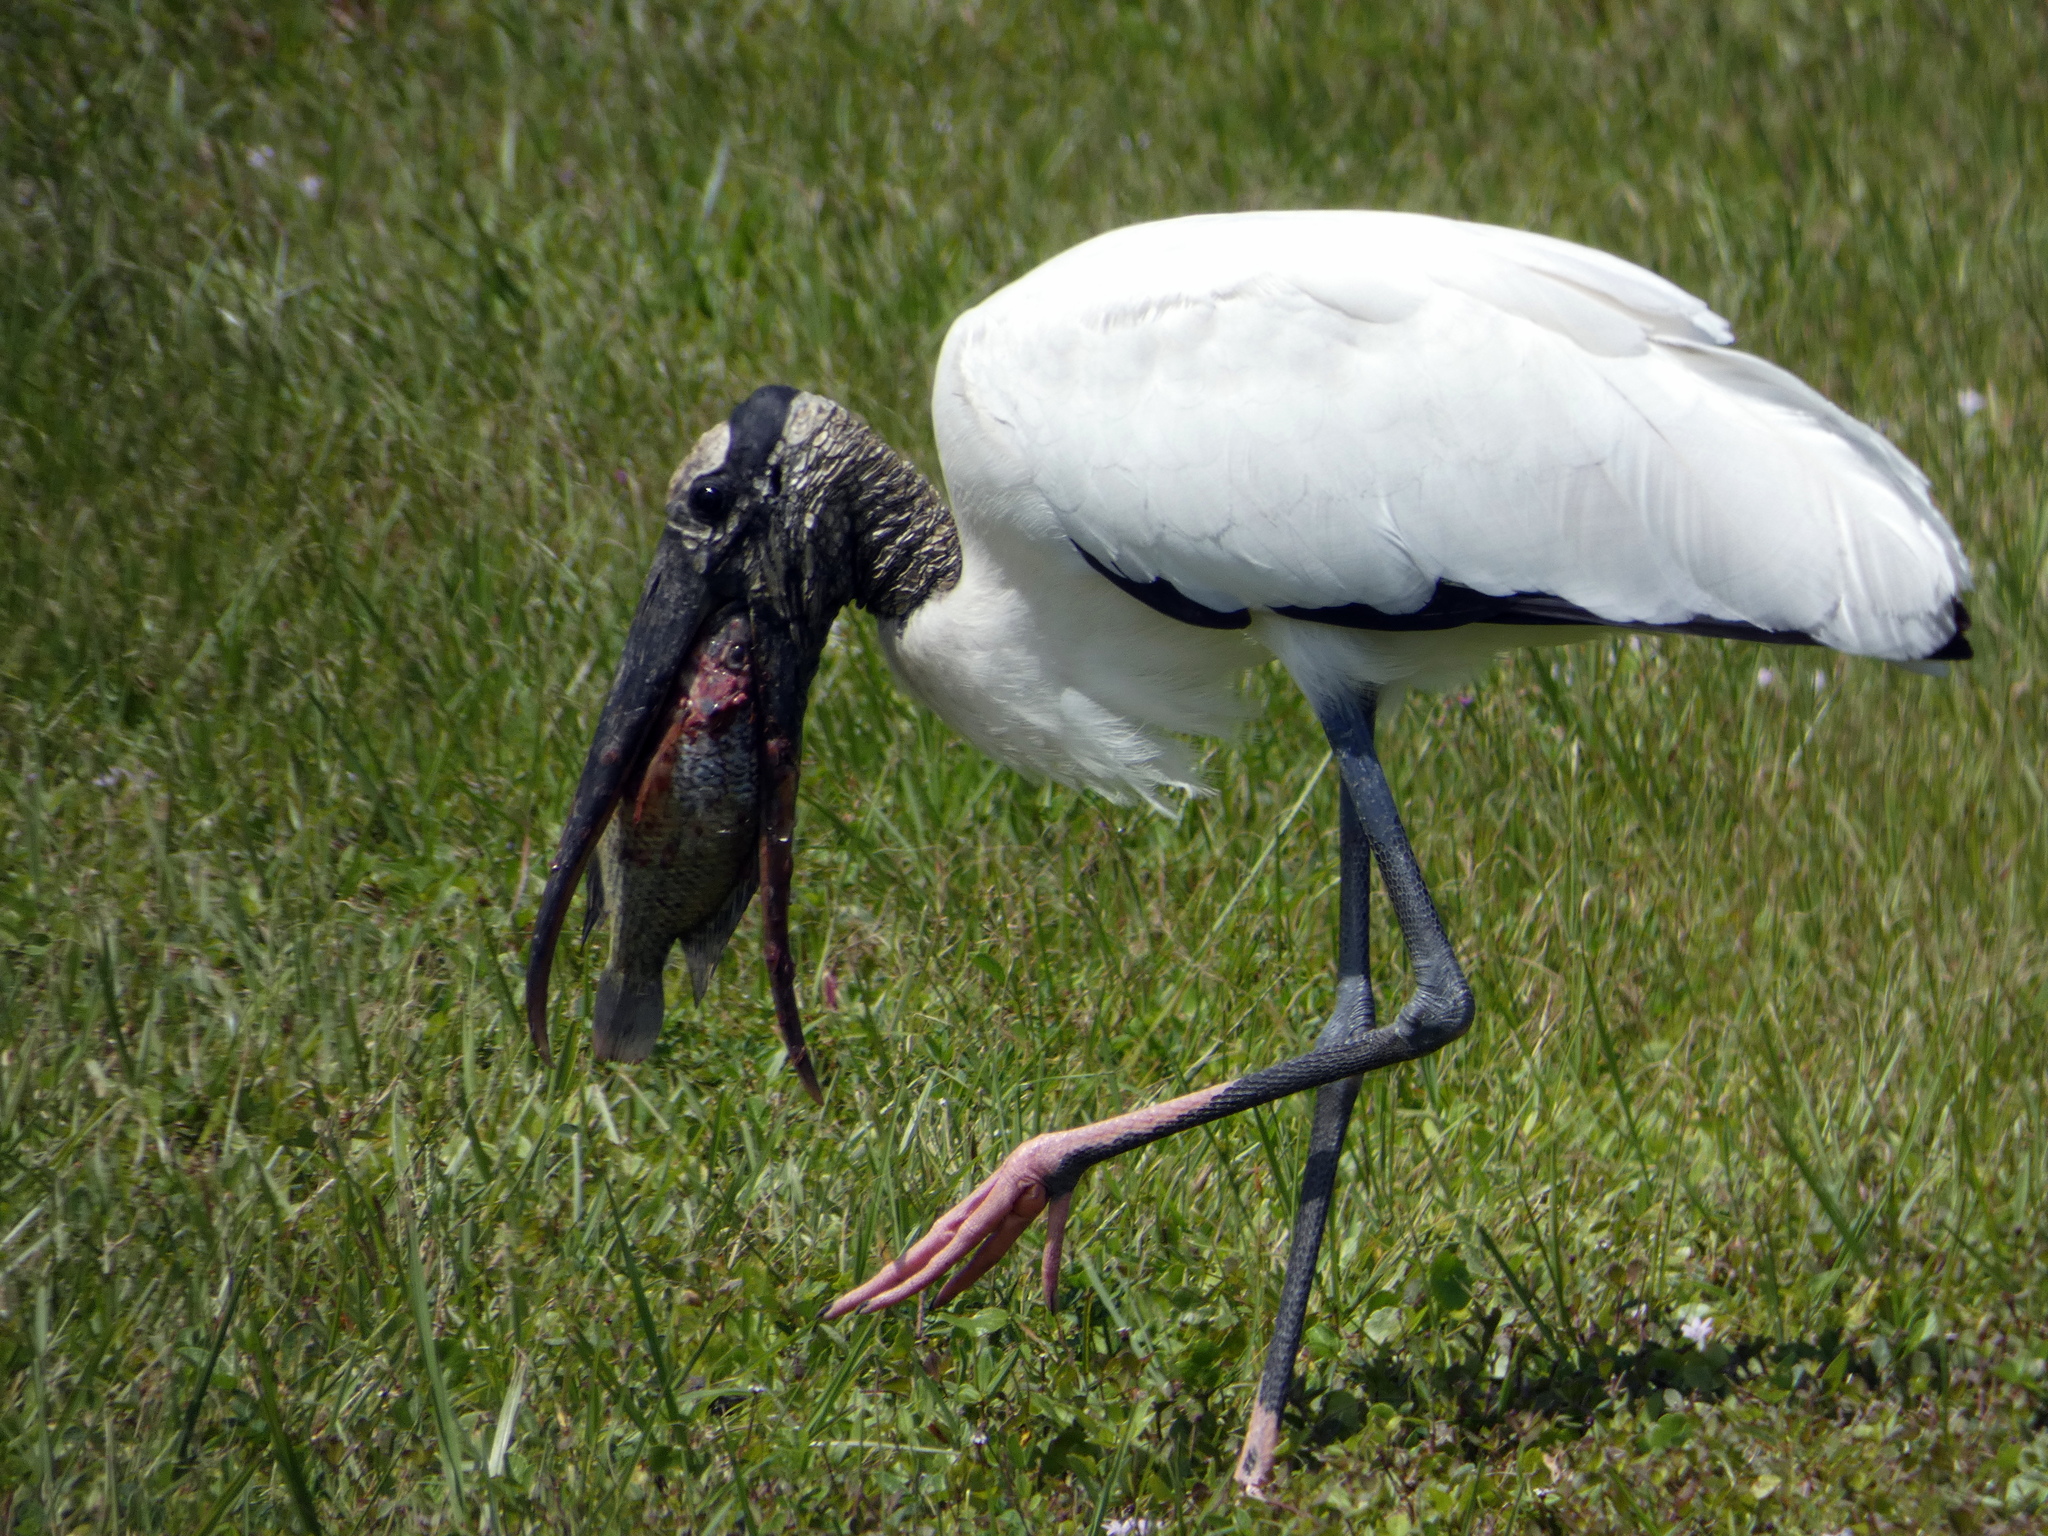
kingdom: Animalia
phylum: Chordata
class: Aves
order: Ciconiiformes
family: Ciconiidae
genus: Mycteria
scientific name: Mycteria americana
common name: Wood stork
